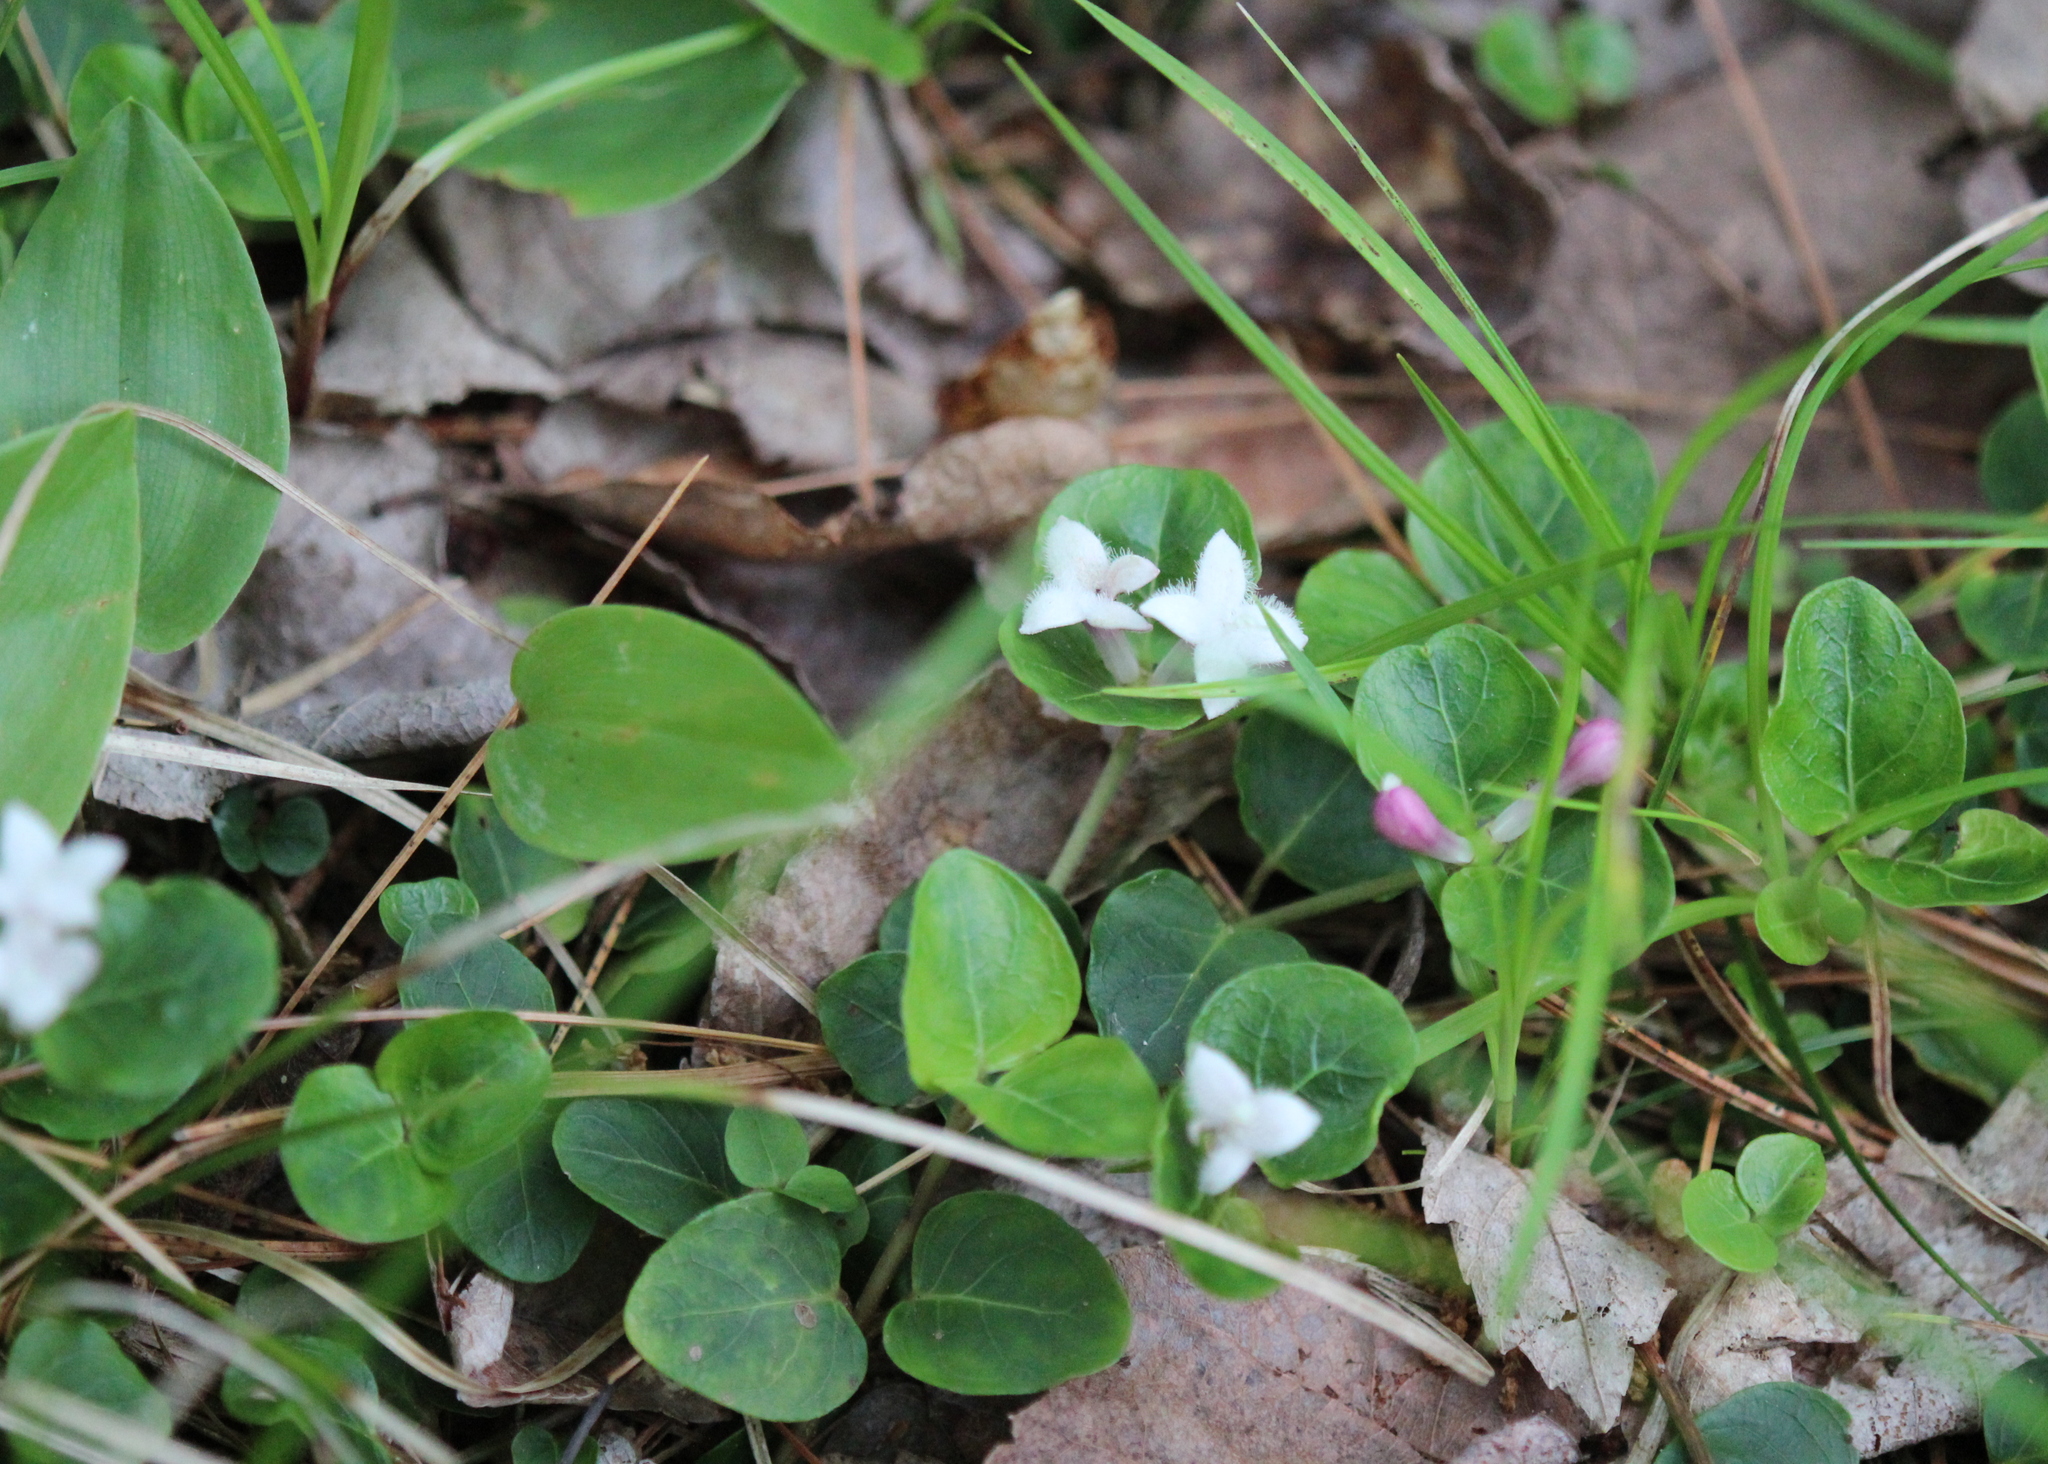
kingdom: Plantae
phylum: Tracheophyta
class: Magnoliopsida
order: Gentianales
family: Rubiaceae
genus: Mitchella
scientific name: Mitchella repens
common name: Partridge-berry
